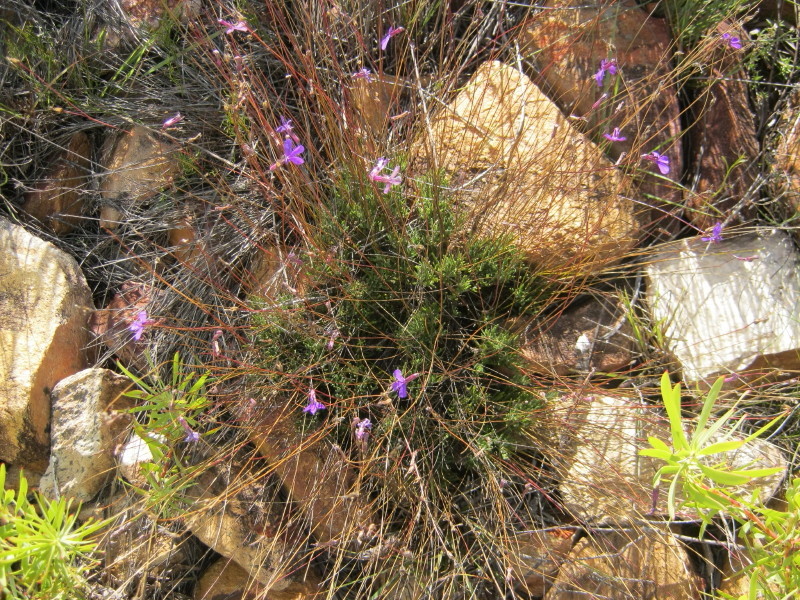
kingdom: Plantae
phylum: Tracheophyta
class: Magnoliopsida
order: Asterales
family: Campanulaceae
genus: Lobelia
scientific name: Lobelia tomentosa
